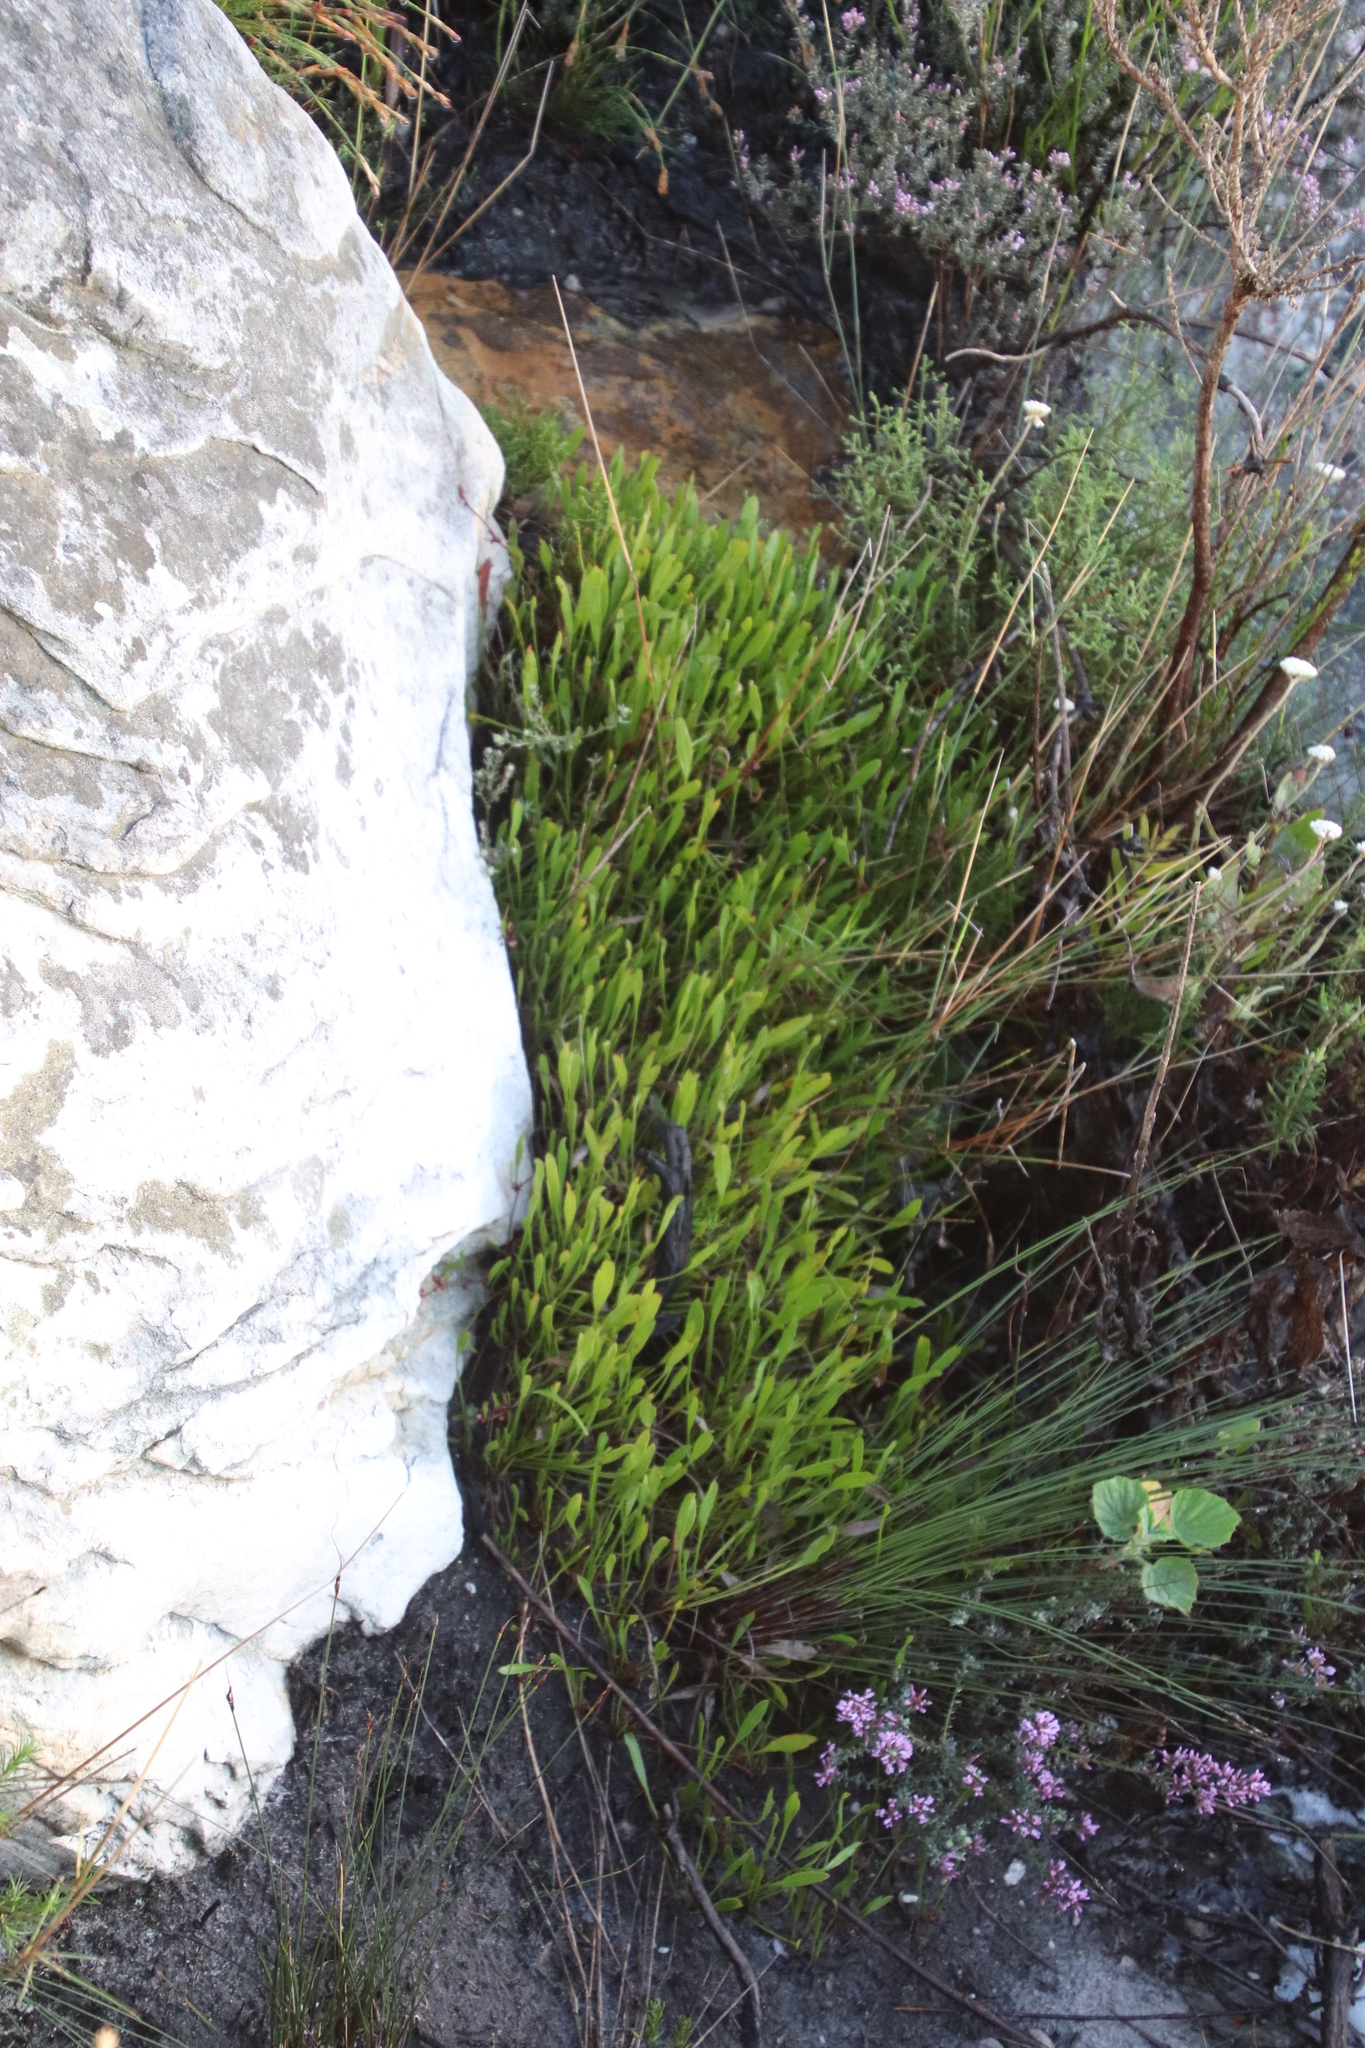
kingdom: Plantae
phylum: Tracheophyta
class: Magnoliopsida
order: Apiales
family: Apiaceae
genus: Centella
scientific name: Centella glabrata
